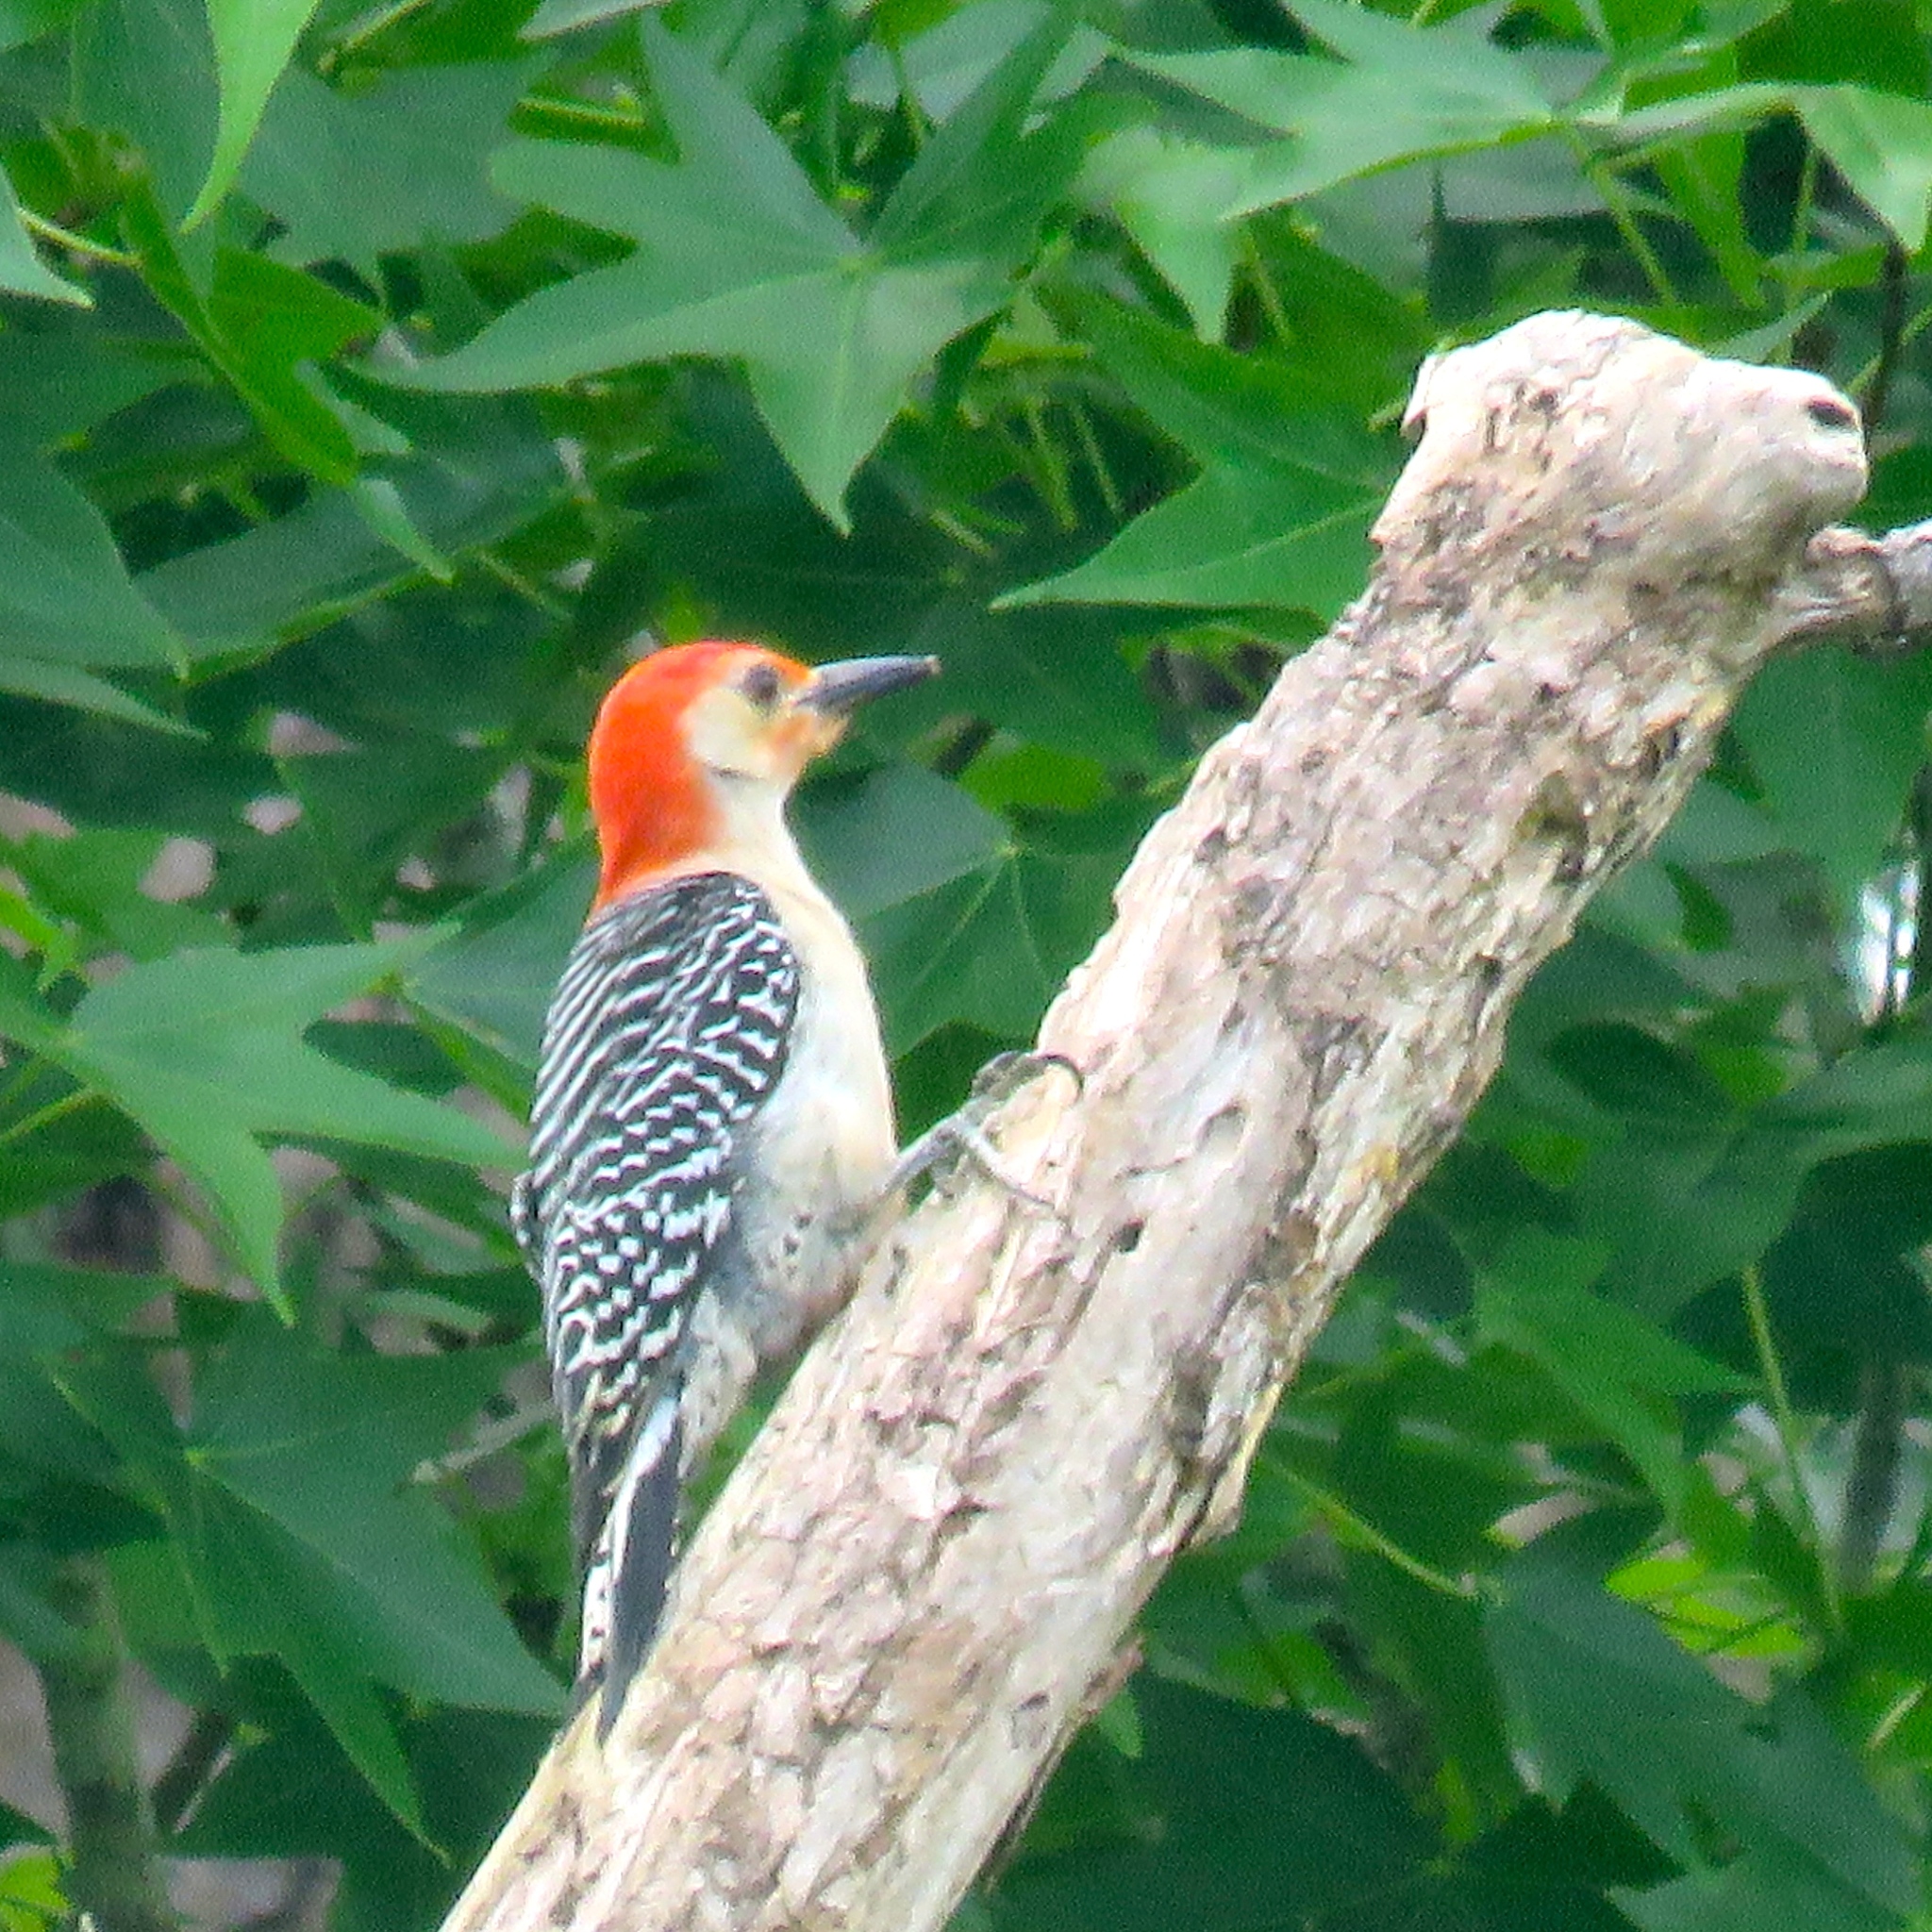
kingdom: Animalia
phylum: Chordata
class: Aves
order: Piciformes
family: Picidae
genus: Melanerpes
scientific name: Melanerpes carolinus
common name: Red-bellied woodpecker
